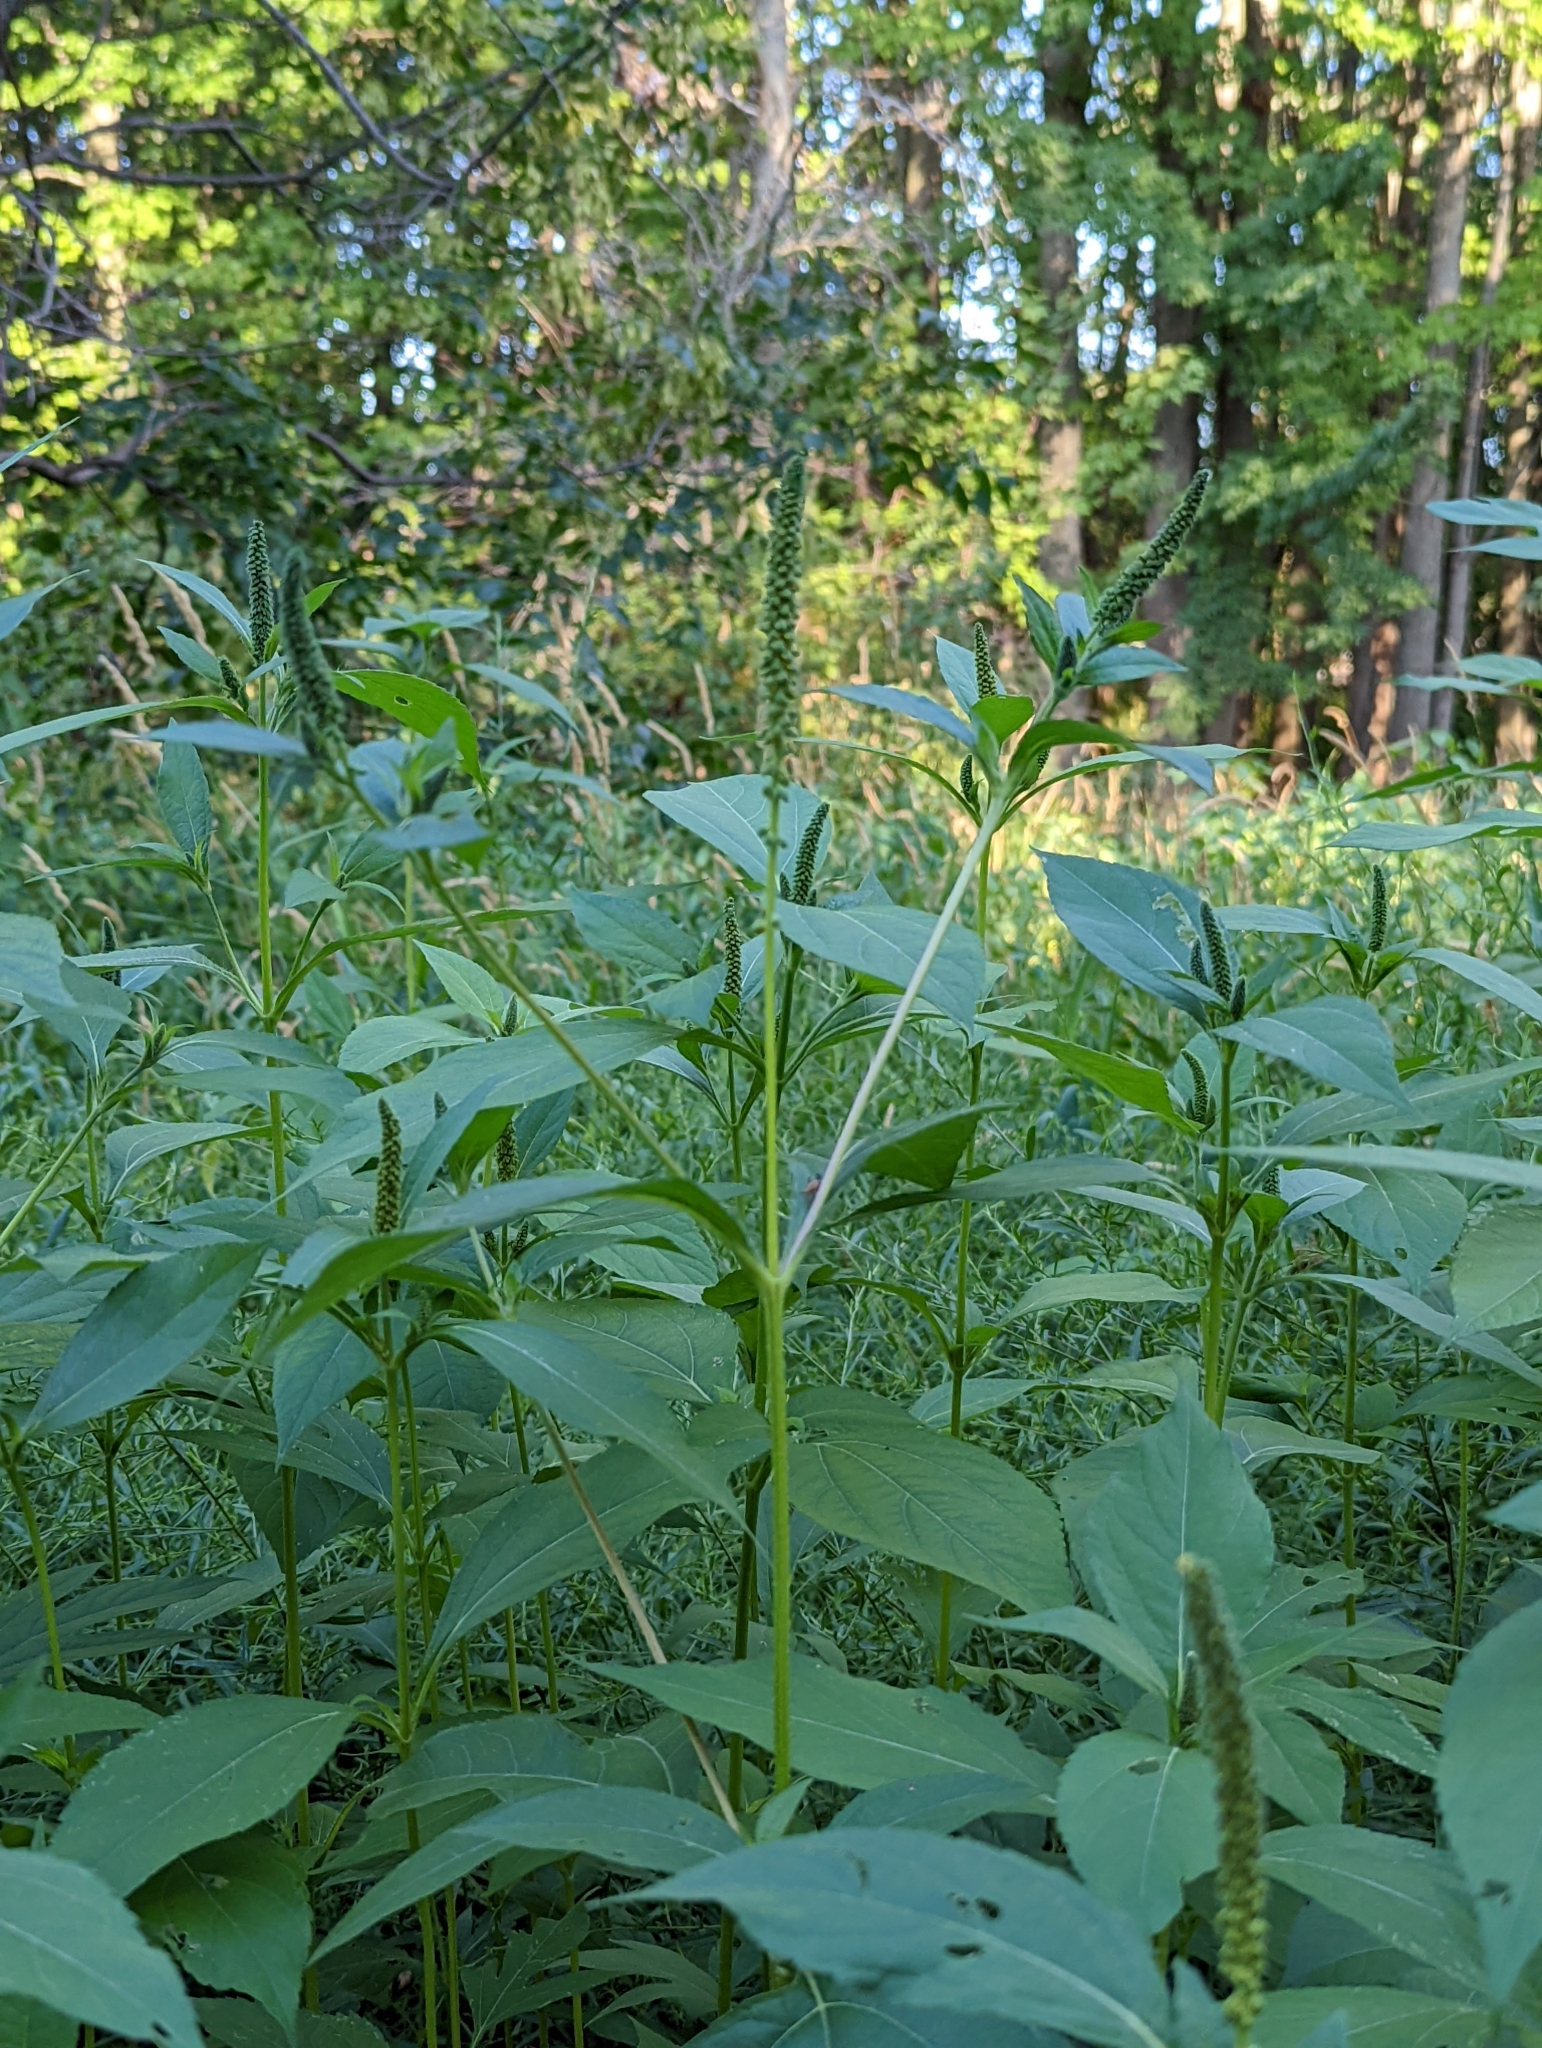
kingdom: Plantae
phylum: Tracheophyta
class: Magnoliopsida
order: Asterales
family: Asteraceae
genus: Ambrosia
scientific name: Ambrosia trifida
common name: Giant ragweed
